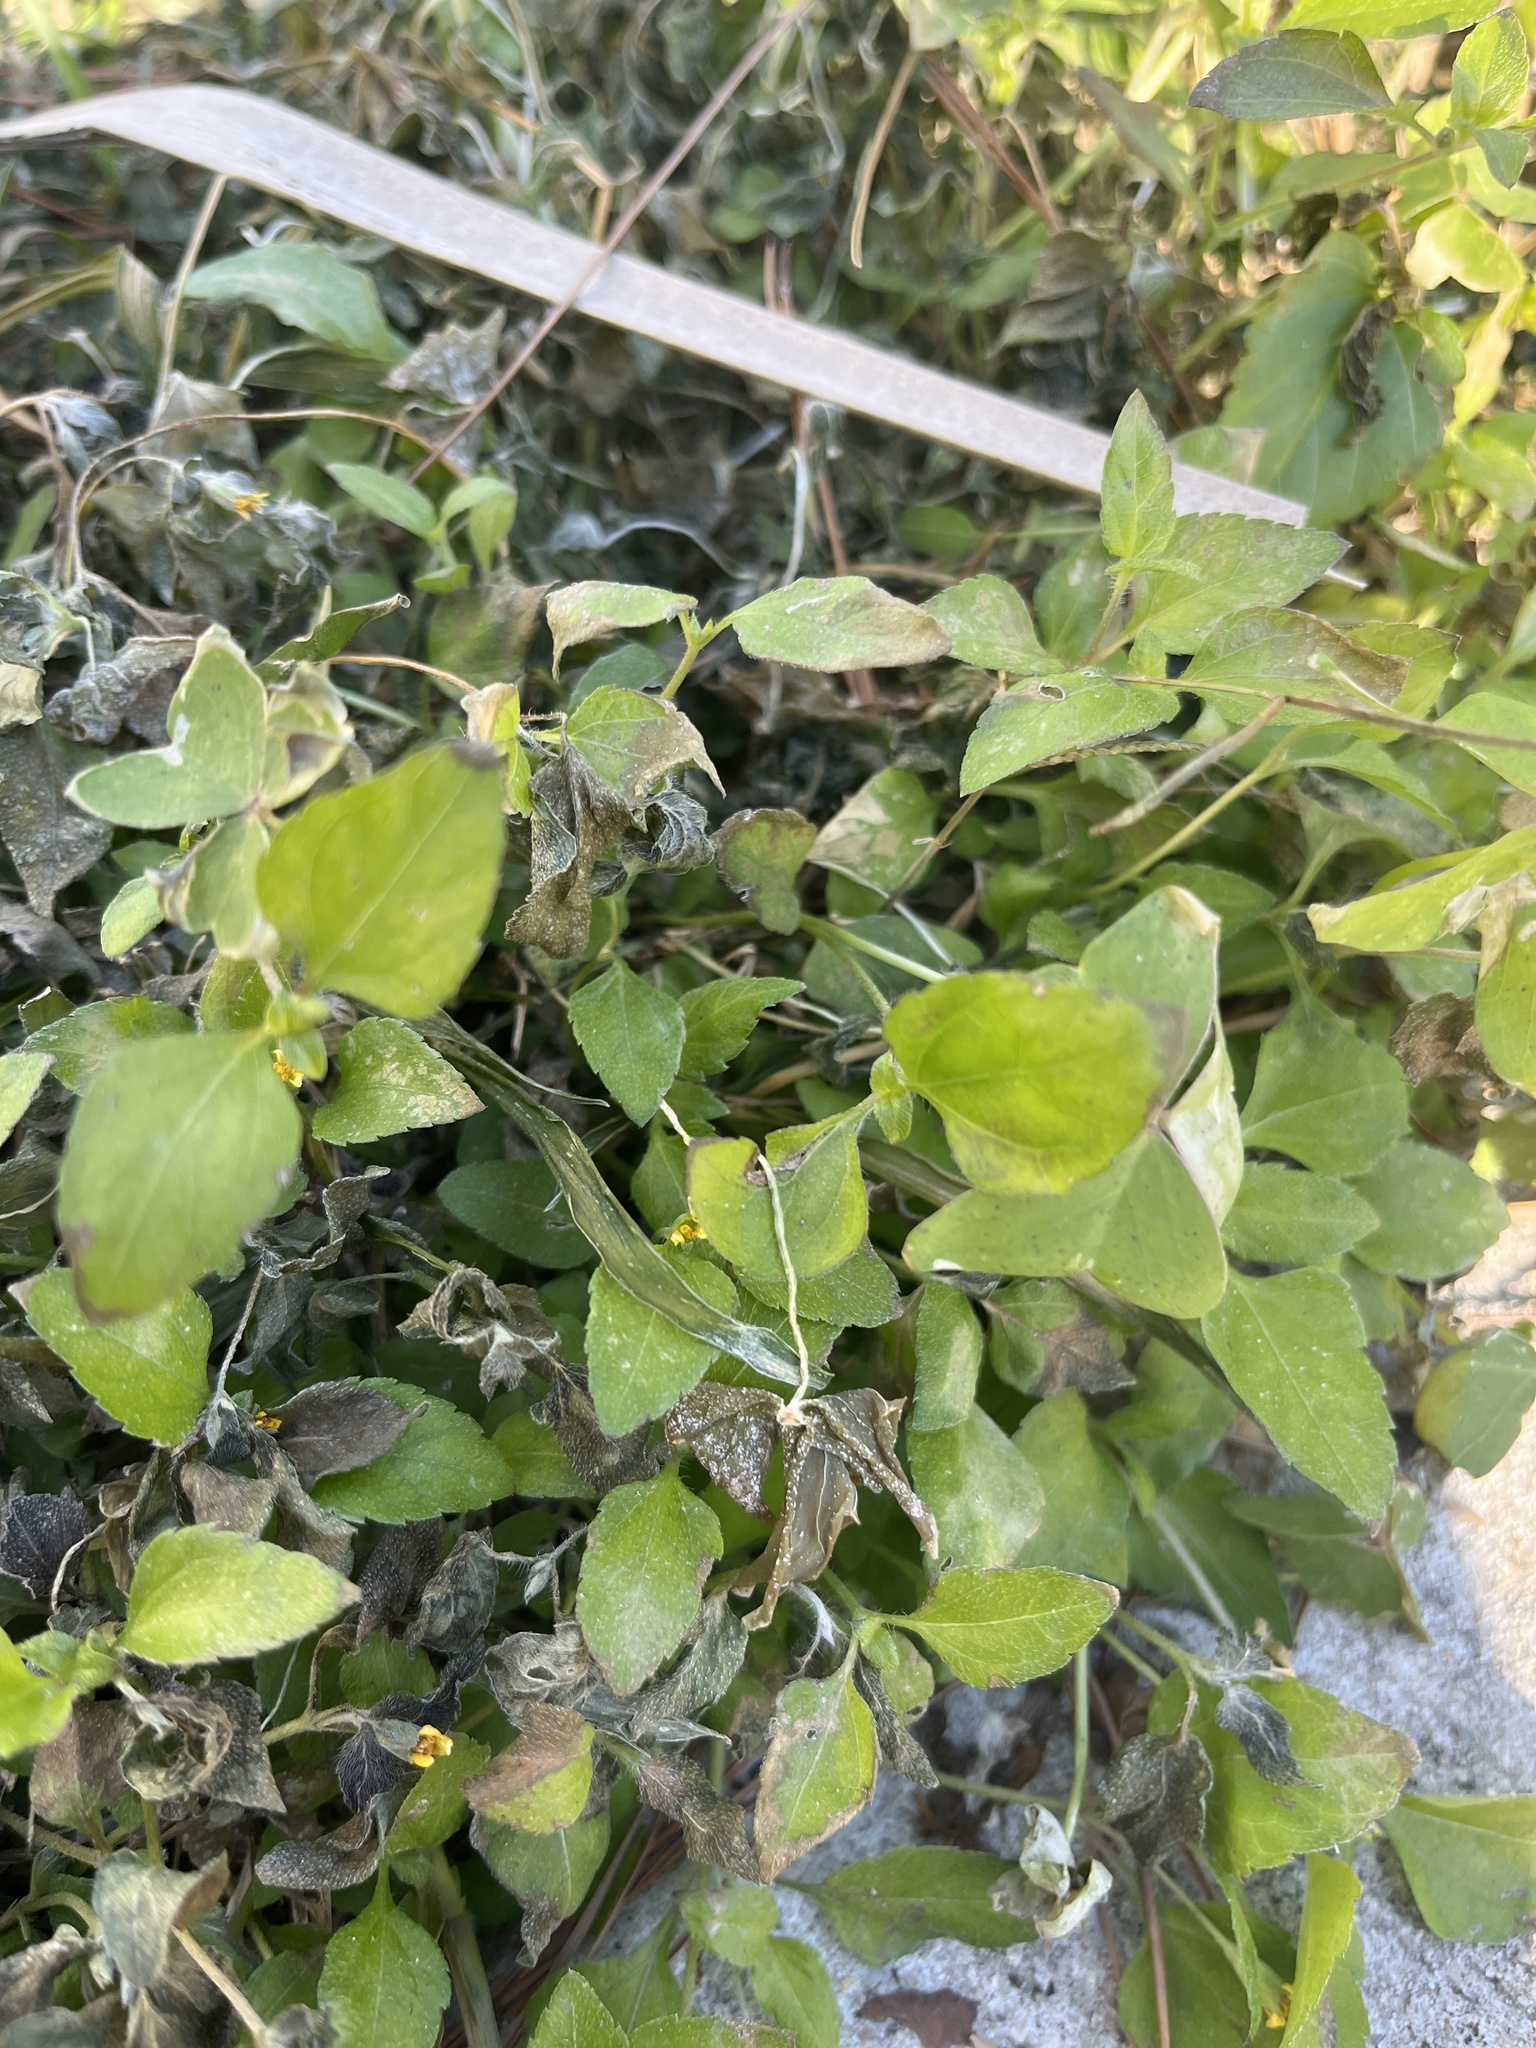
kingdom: Plantae
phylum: Tracheophyta
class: Magnoliopsida
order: Asterales
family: Asteraceae
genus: Calyptocarpus
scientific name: Calyptocarpus vialis
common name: Straggler daisy
